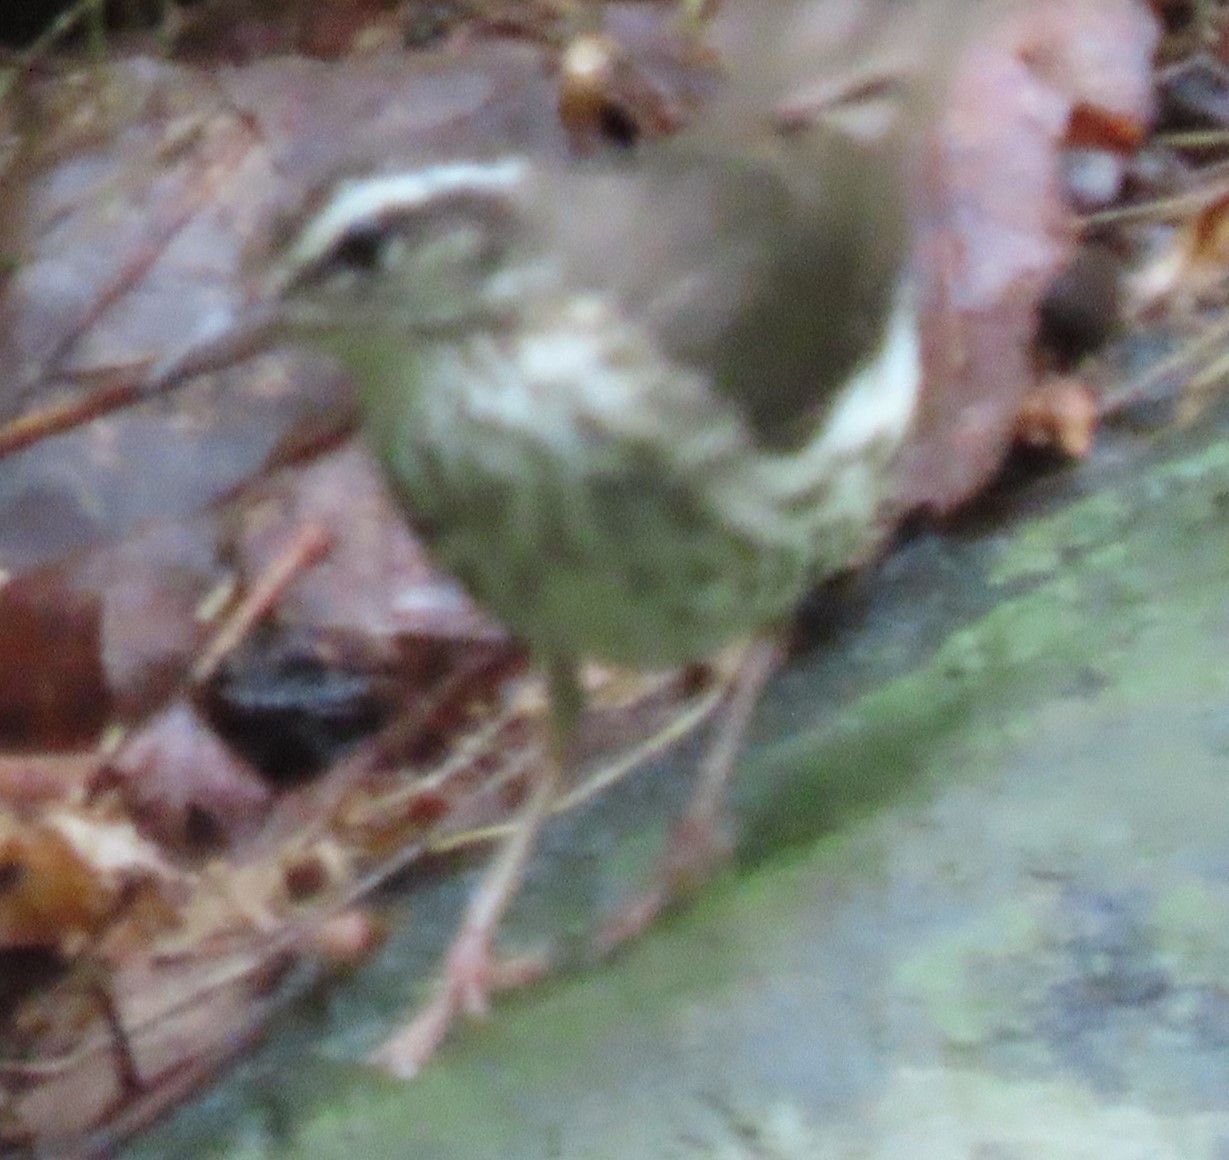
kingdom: Animalia
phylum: Chordata
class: Aves
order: Passeriformes
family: Parulidae
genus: Parkesia
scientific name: Parkesia motacilla
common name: Louisiana waterthrush
